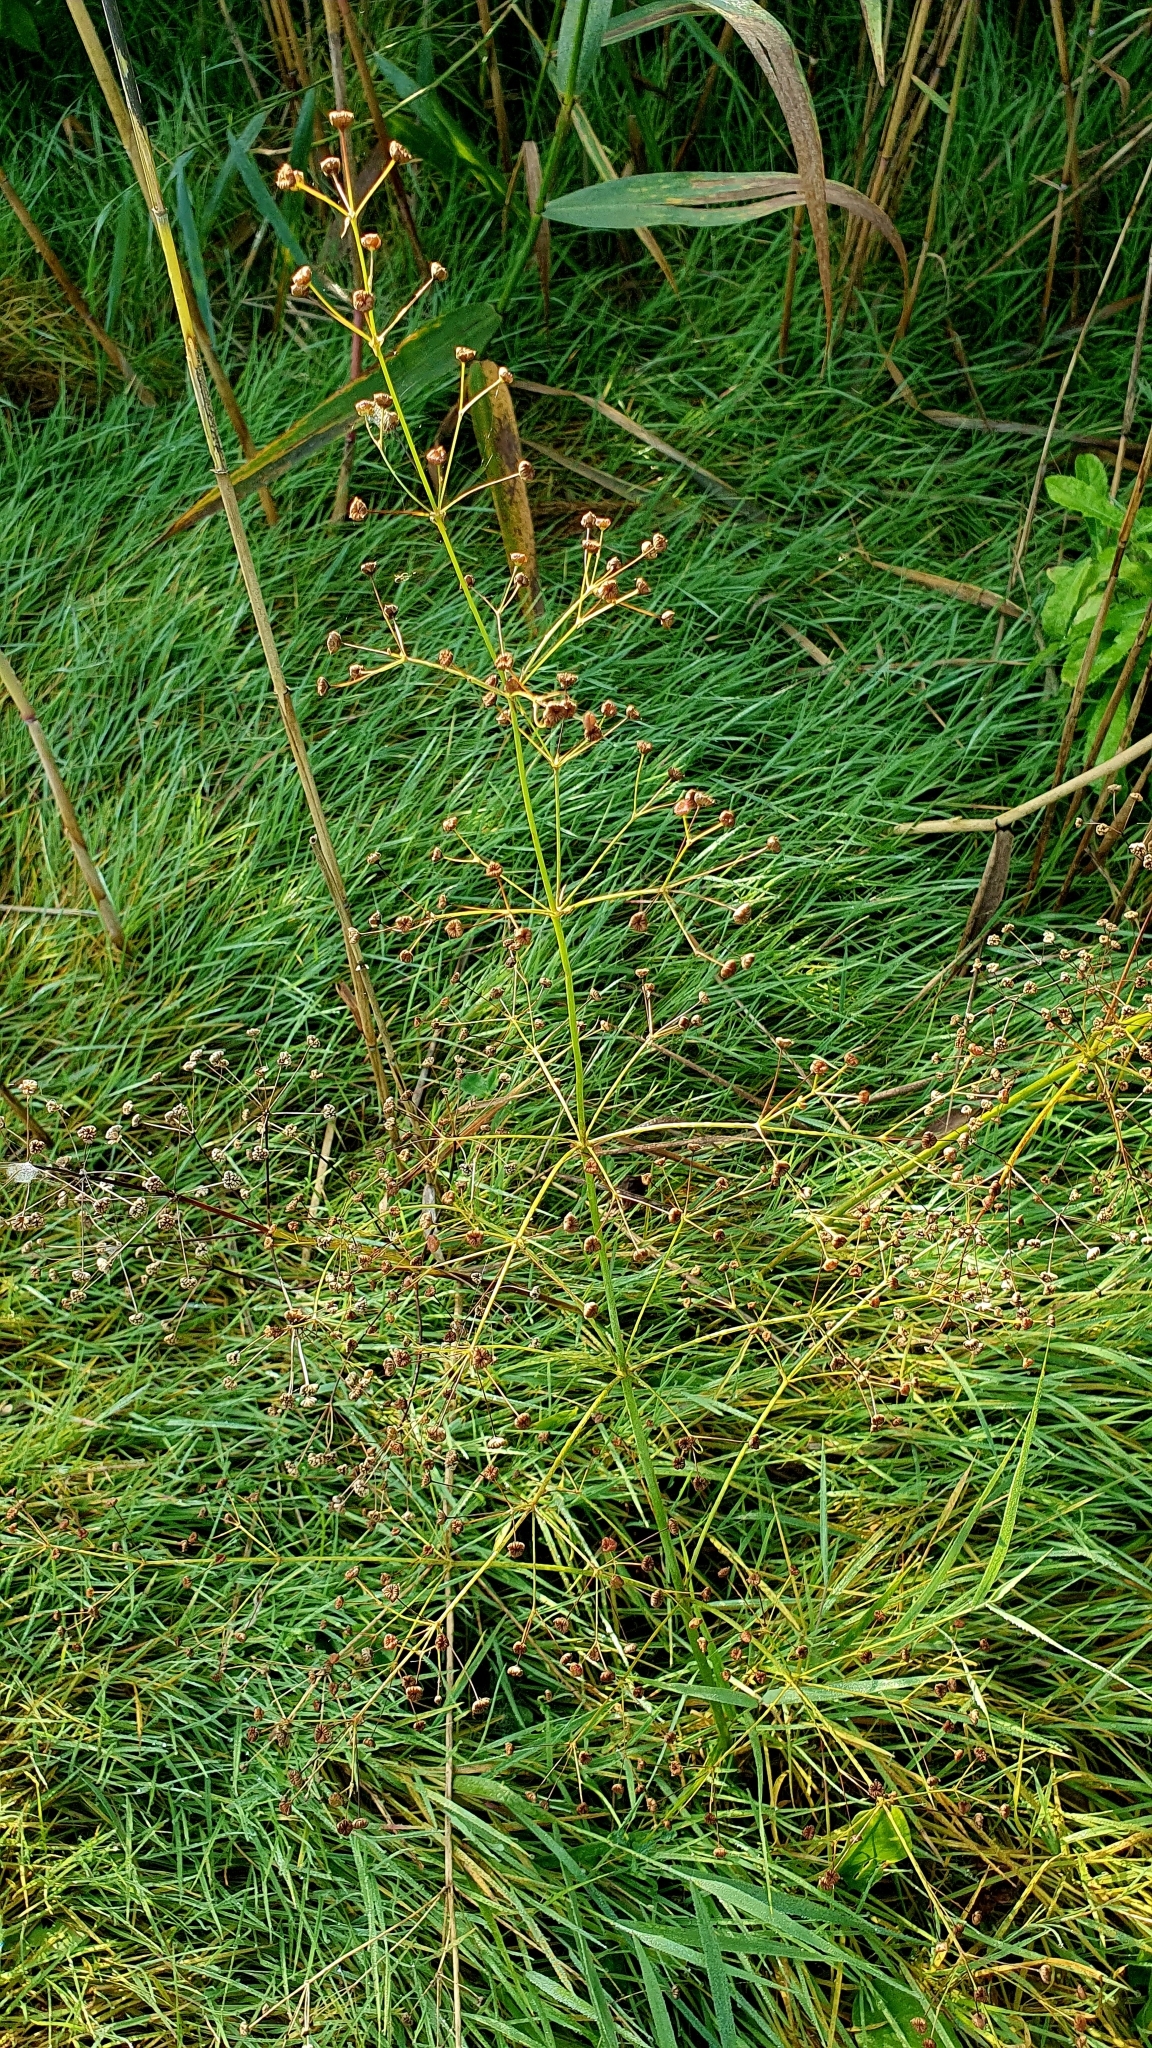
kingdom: Plantae
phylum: Tracheophyta
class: Liliopsida
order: Alismatales
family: Alismataceae
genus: Alisma
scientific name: Alisma plantago-aquatica
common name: Water-plantain
